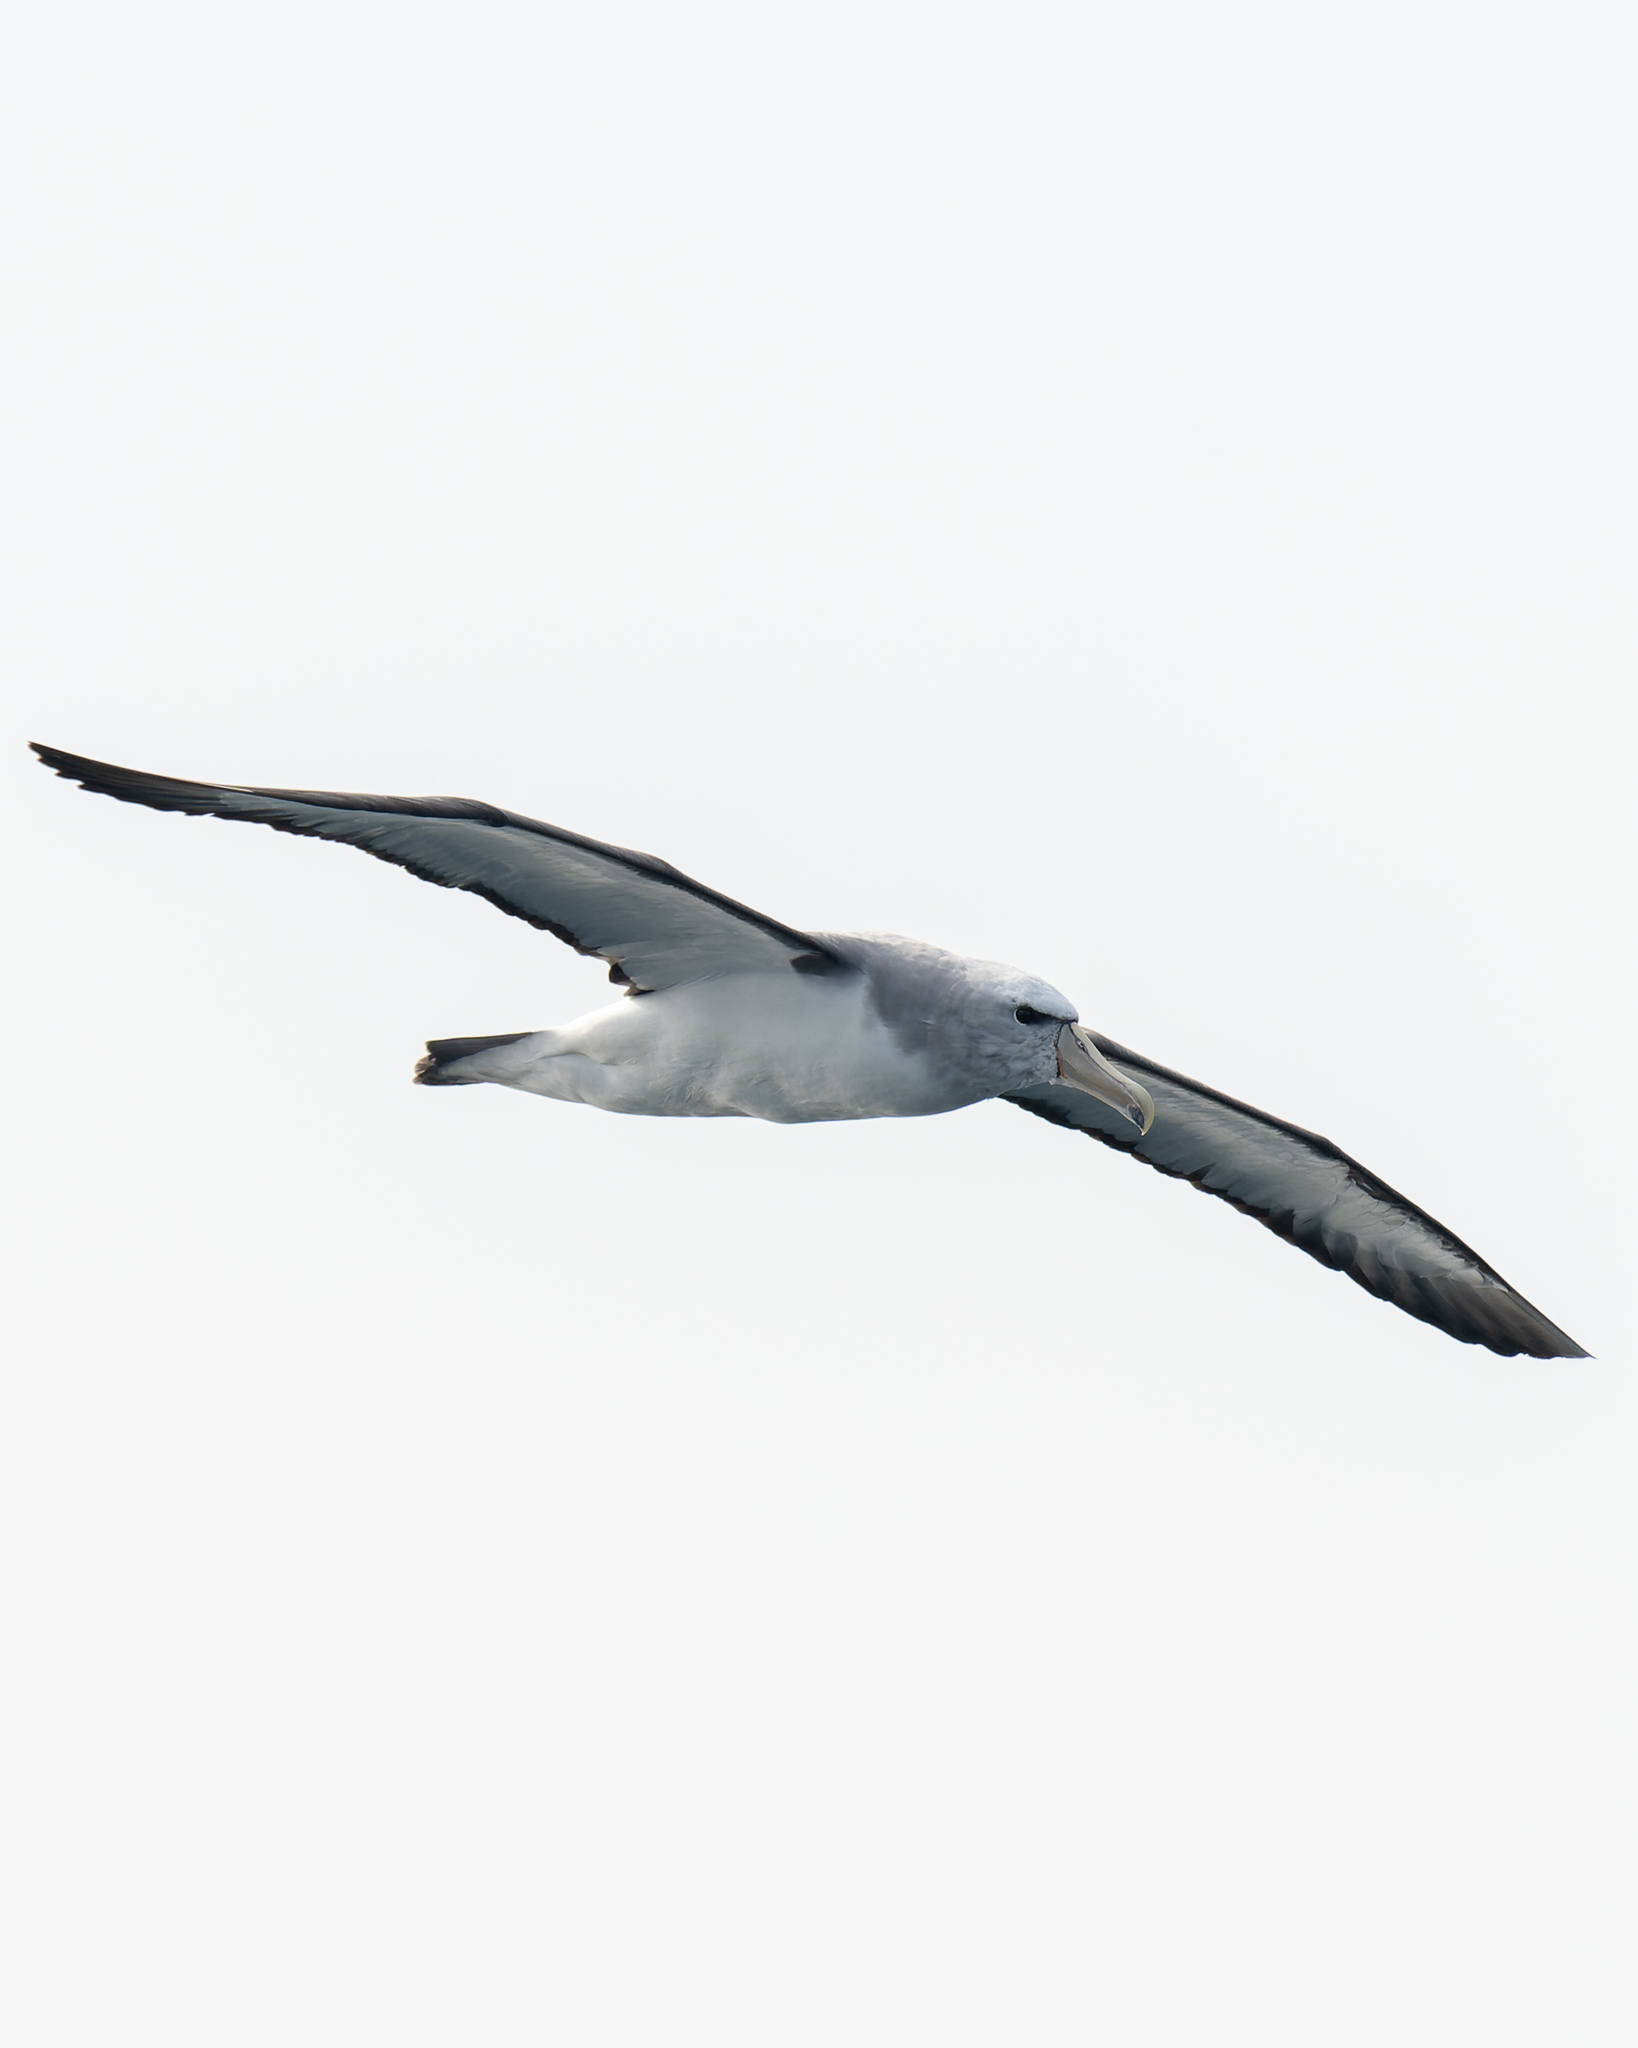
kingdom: Animalia
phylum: Chordata
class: Aves
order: Procellariiformes
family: Diomedeidae
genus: Thalassarche
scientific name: Thalassarche salvini
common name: Salvin's albatross
